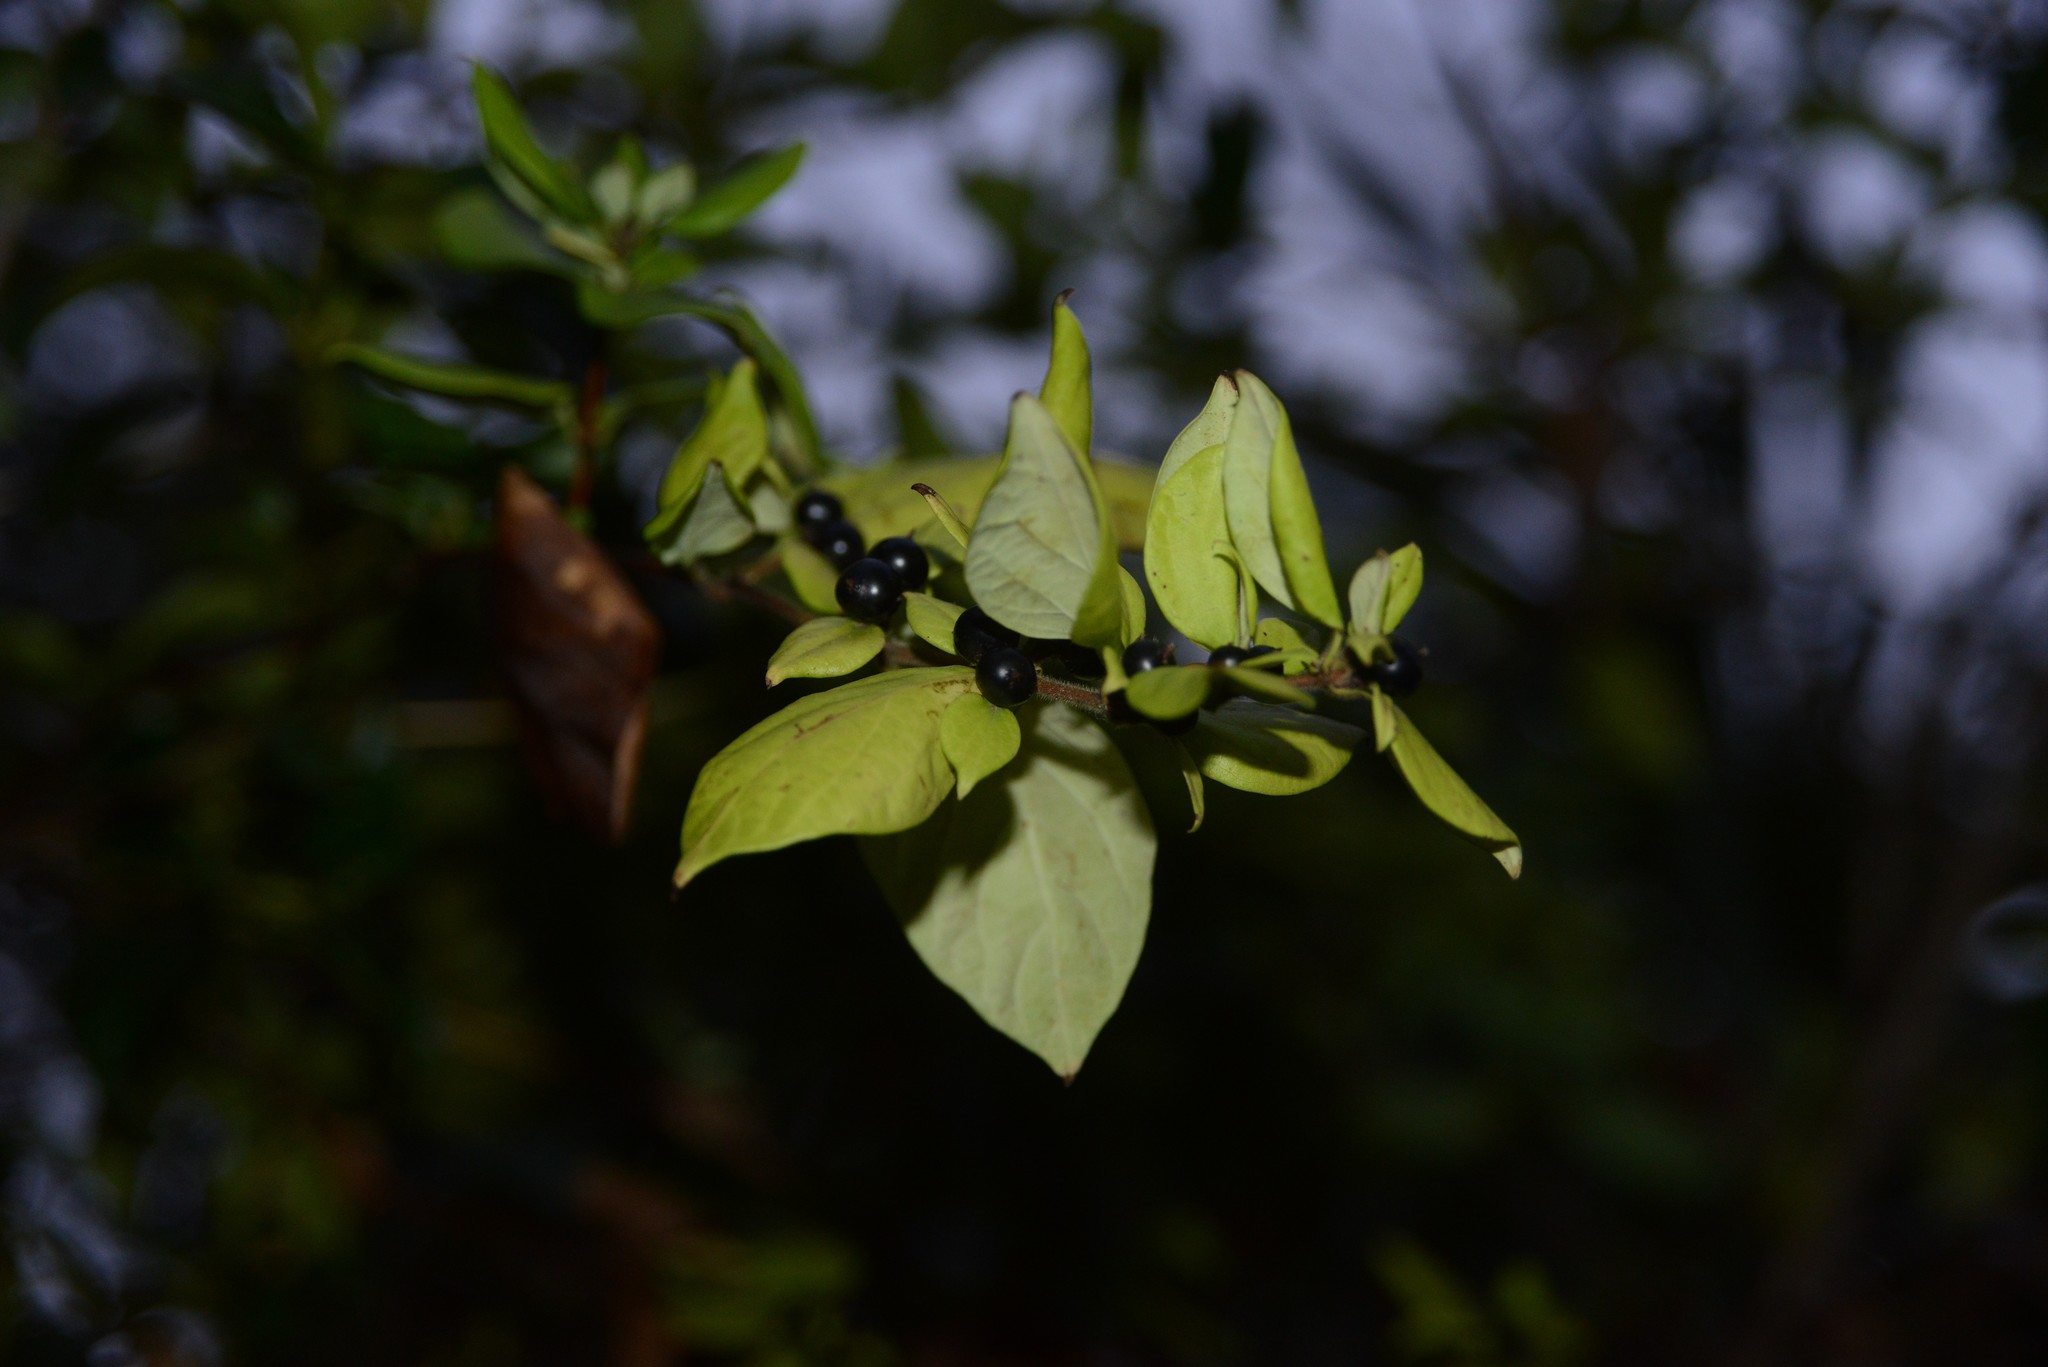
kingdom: Plantae
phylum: Tracheophyta
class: Magnoliopsida
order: Dipsacales
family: Caprifoliaceae
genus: Lonicera
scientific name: Lonicera japonica
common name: Japanese honeysuckle
